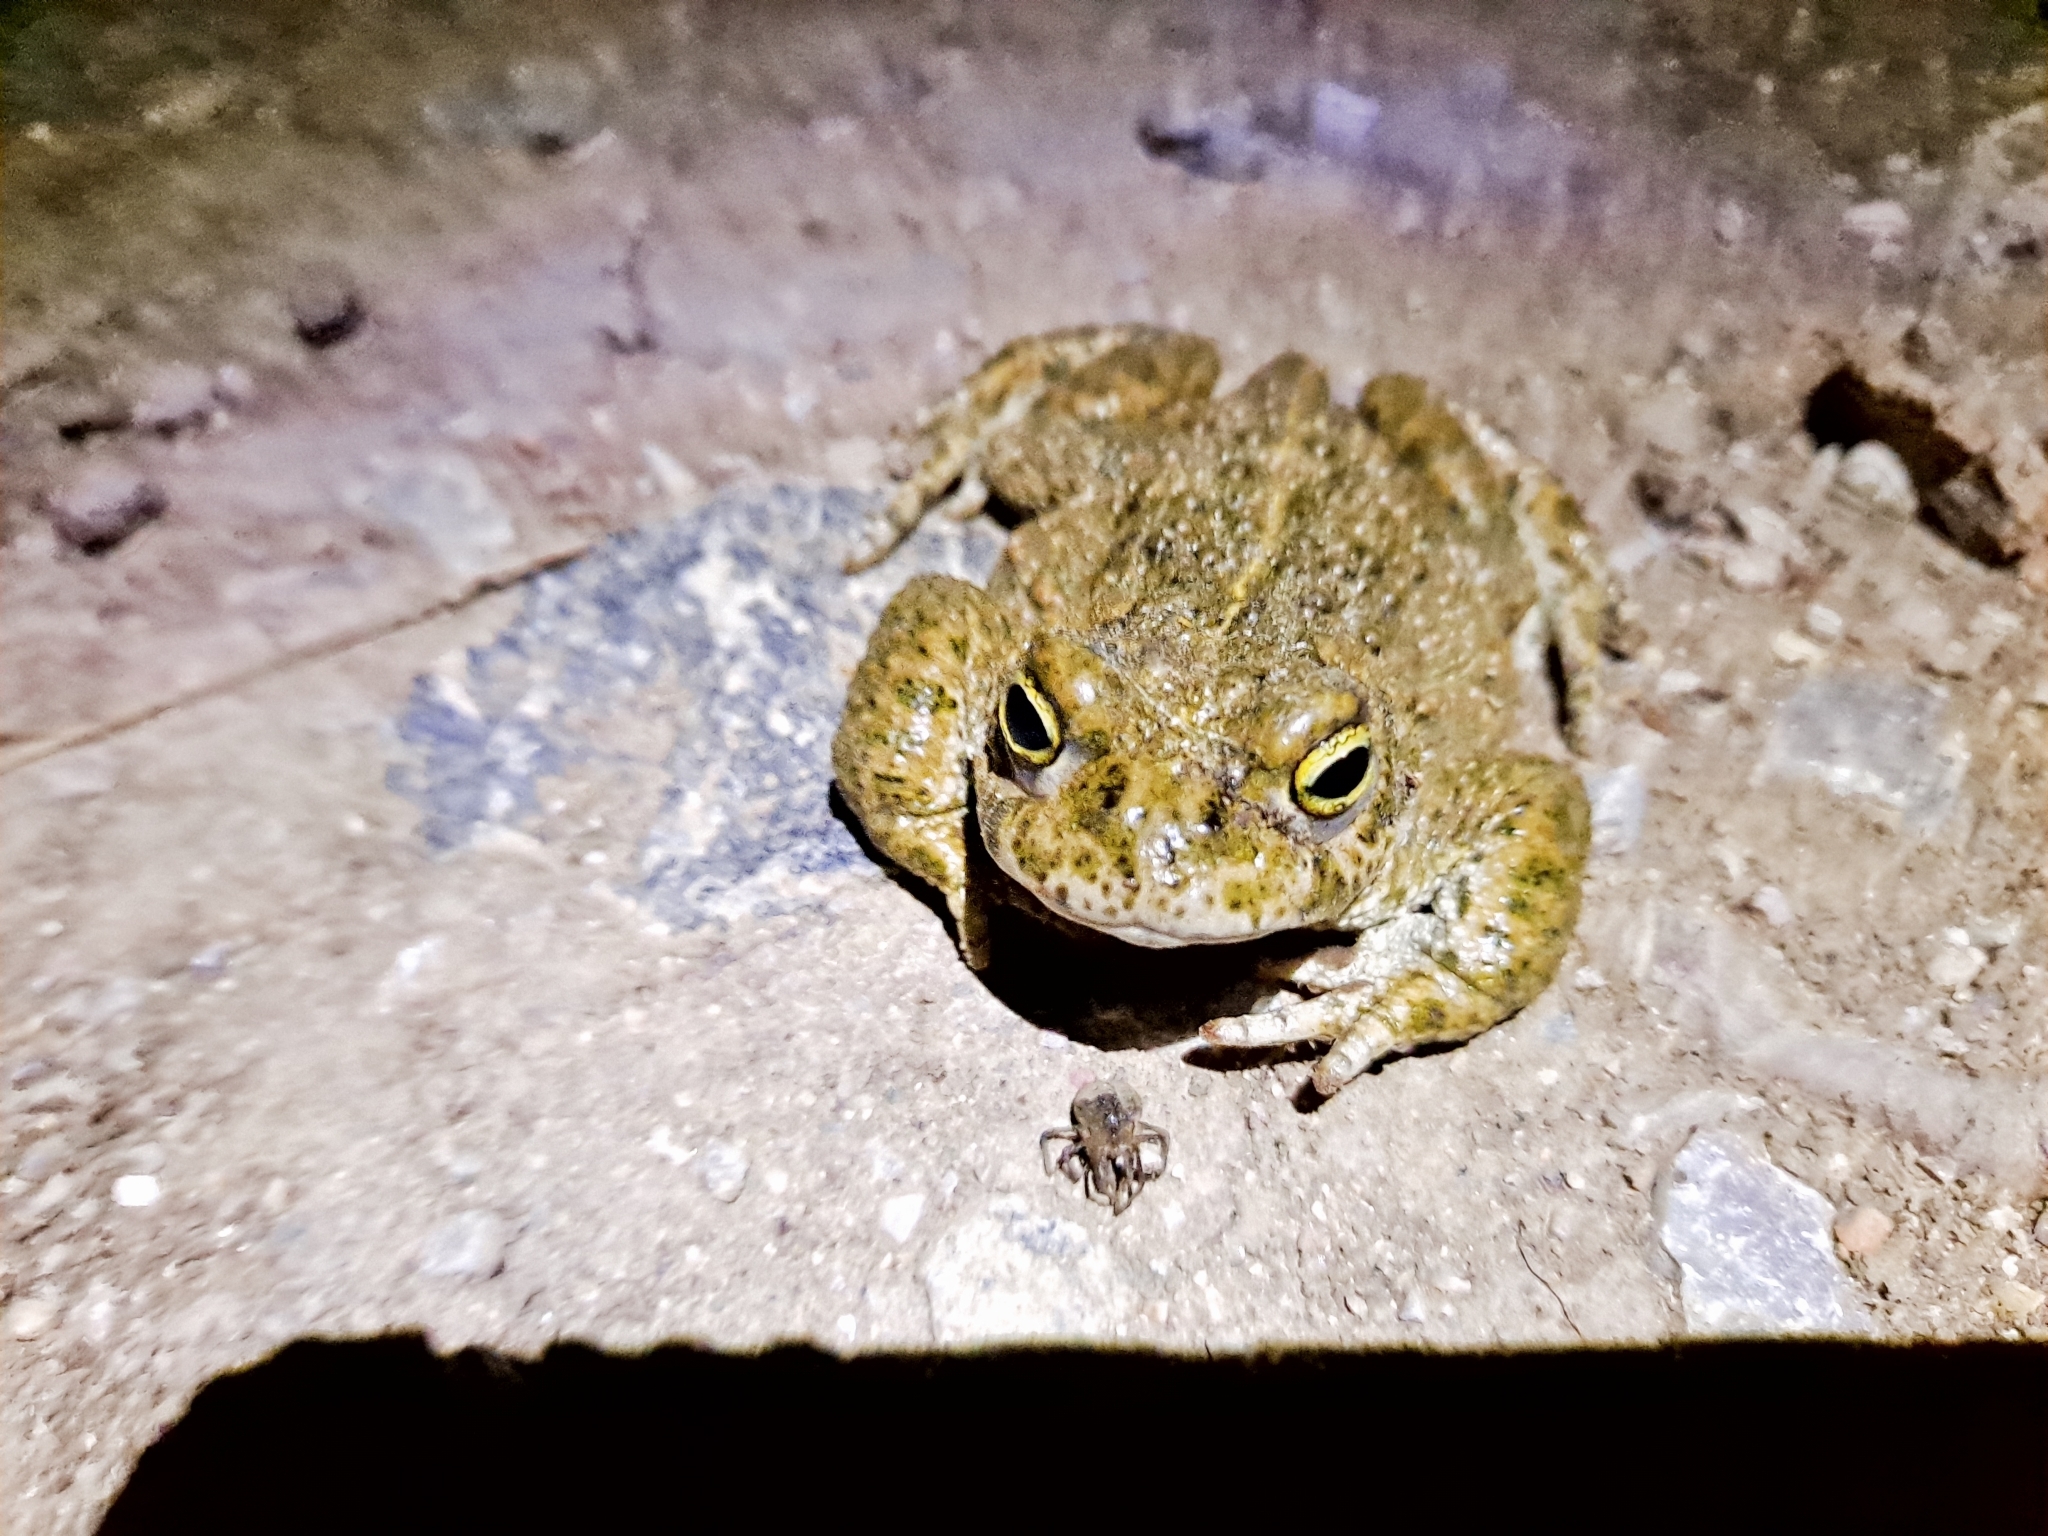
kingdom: Animalia
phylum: Chordata
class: Amphibia
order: Anura
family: Bufonidae
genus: Epidalea
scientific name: Epidalea calamita
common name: Natterjack toad
